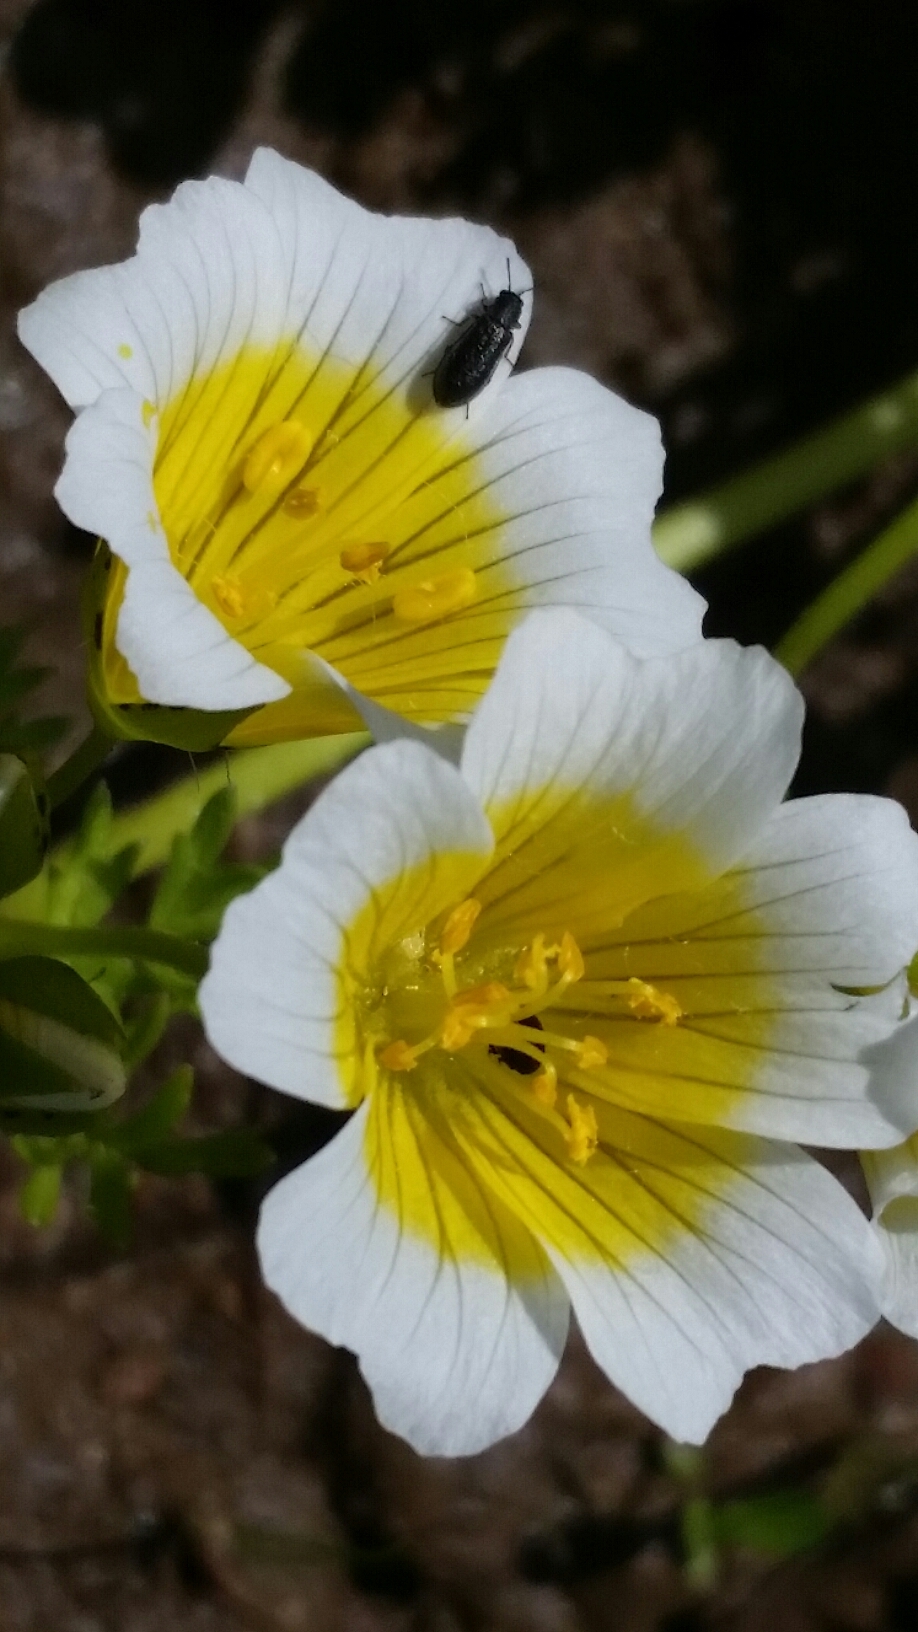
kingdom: Plantae
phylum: Tracheophyta
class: Magnoliopsida
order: Brassicales
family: Limnanthaceae
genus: Limnanthes
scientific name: Limnanthes douglasii
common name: Meadow-foam
